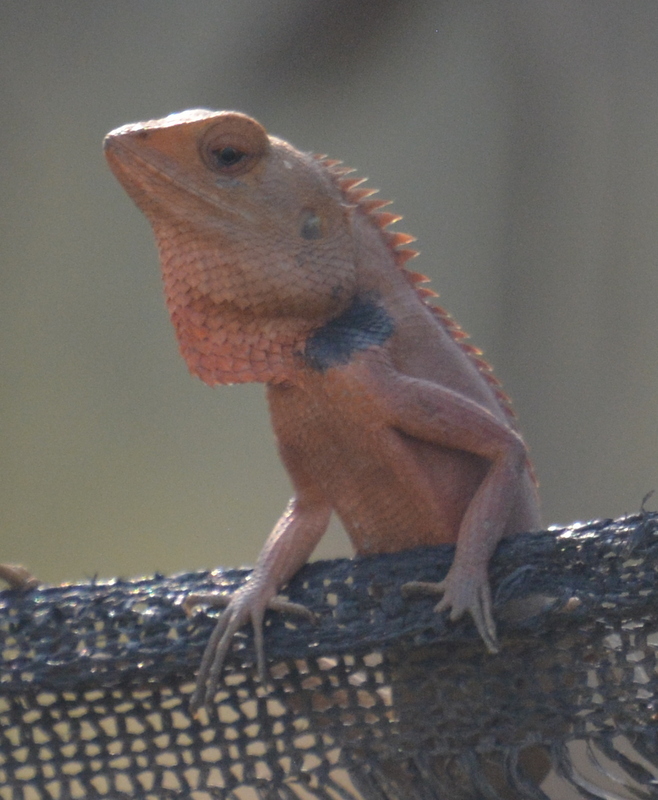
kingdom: Animalia
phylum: Chordata
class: Squamata
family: Agamidae
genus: Calotes
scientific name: Calotes versicolor
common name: Oriental garden lizard
